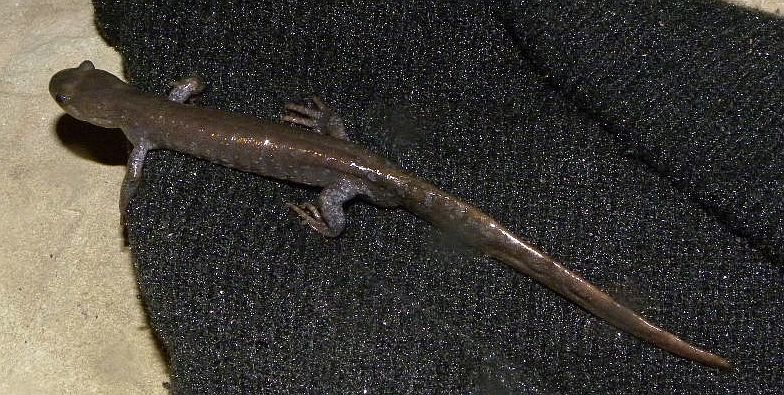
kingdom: Animalia
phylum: Chordata
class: Amphibia
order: Caudata
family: Ambystomatidae
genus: Ambystoma
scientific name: Ambystoma jeffersonianum
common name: Jefferson salamander
